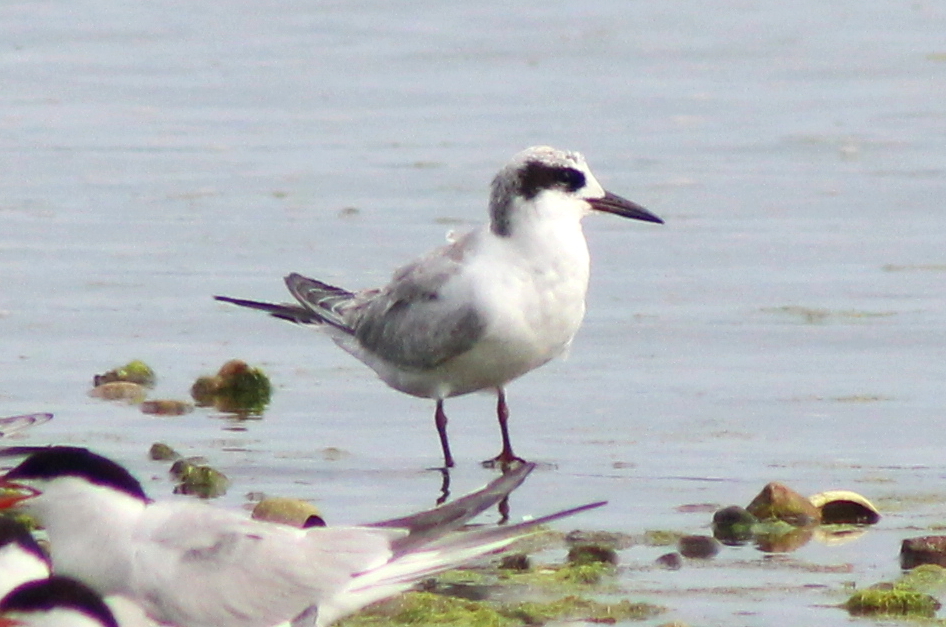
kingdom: Animalia
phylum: Chordata
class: Aves
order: Charadriiformes
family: Laridae
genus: Sterna
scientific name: Sterna forsteri
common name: Forster's tern
